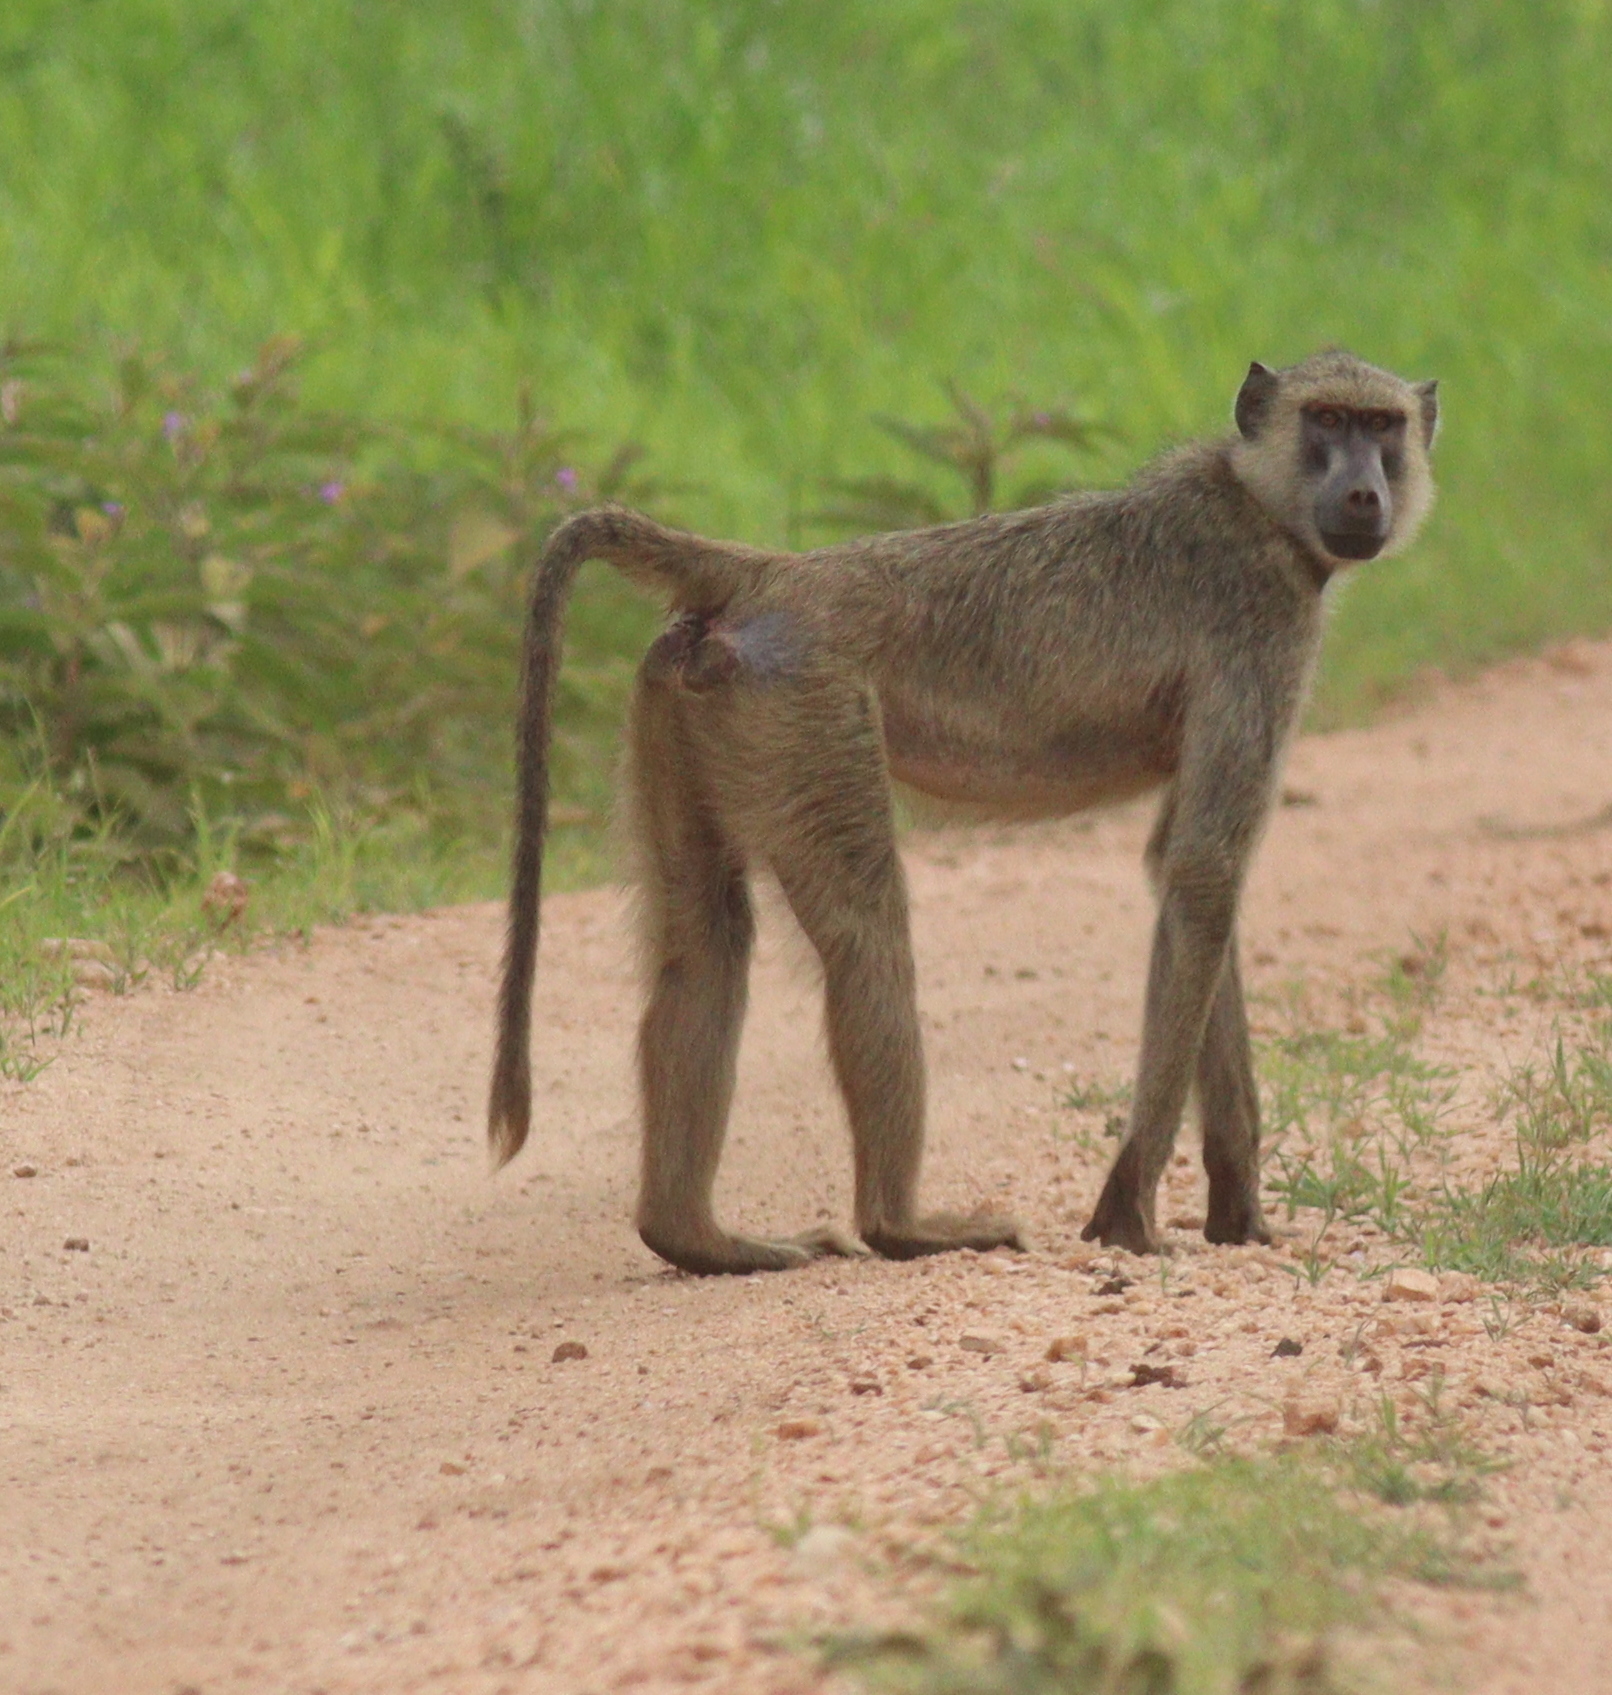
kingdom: Animalia
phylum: Chordata
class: Mammalia
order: Primates
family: Cercopithecidae
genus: Papio
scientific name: Papio cynocephalus
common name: Yellow baboon
